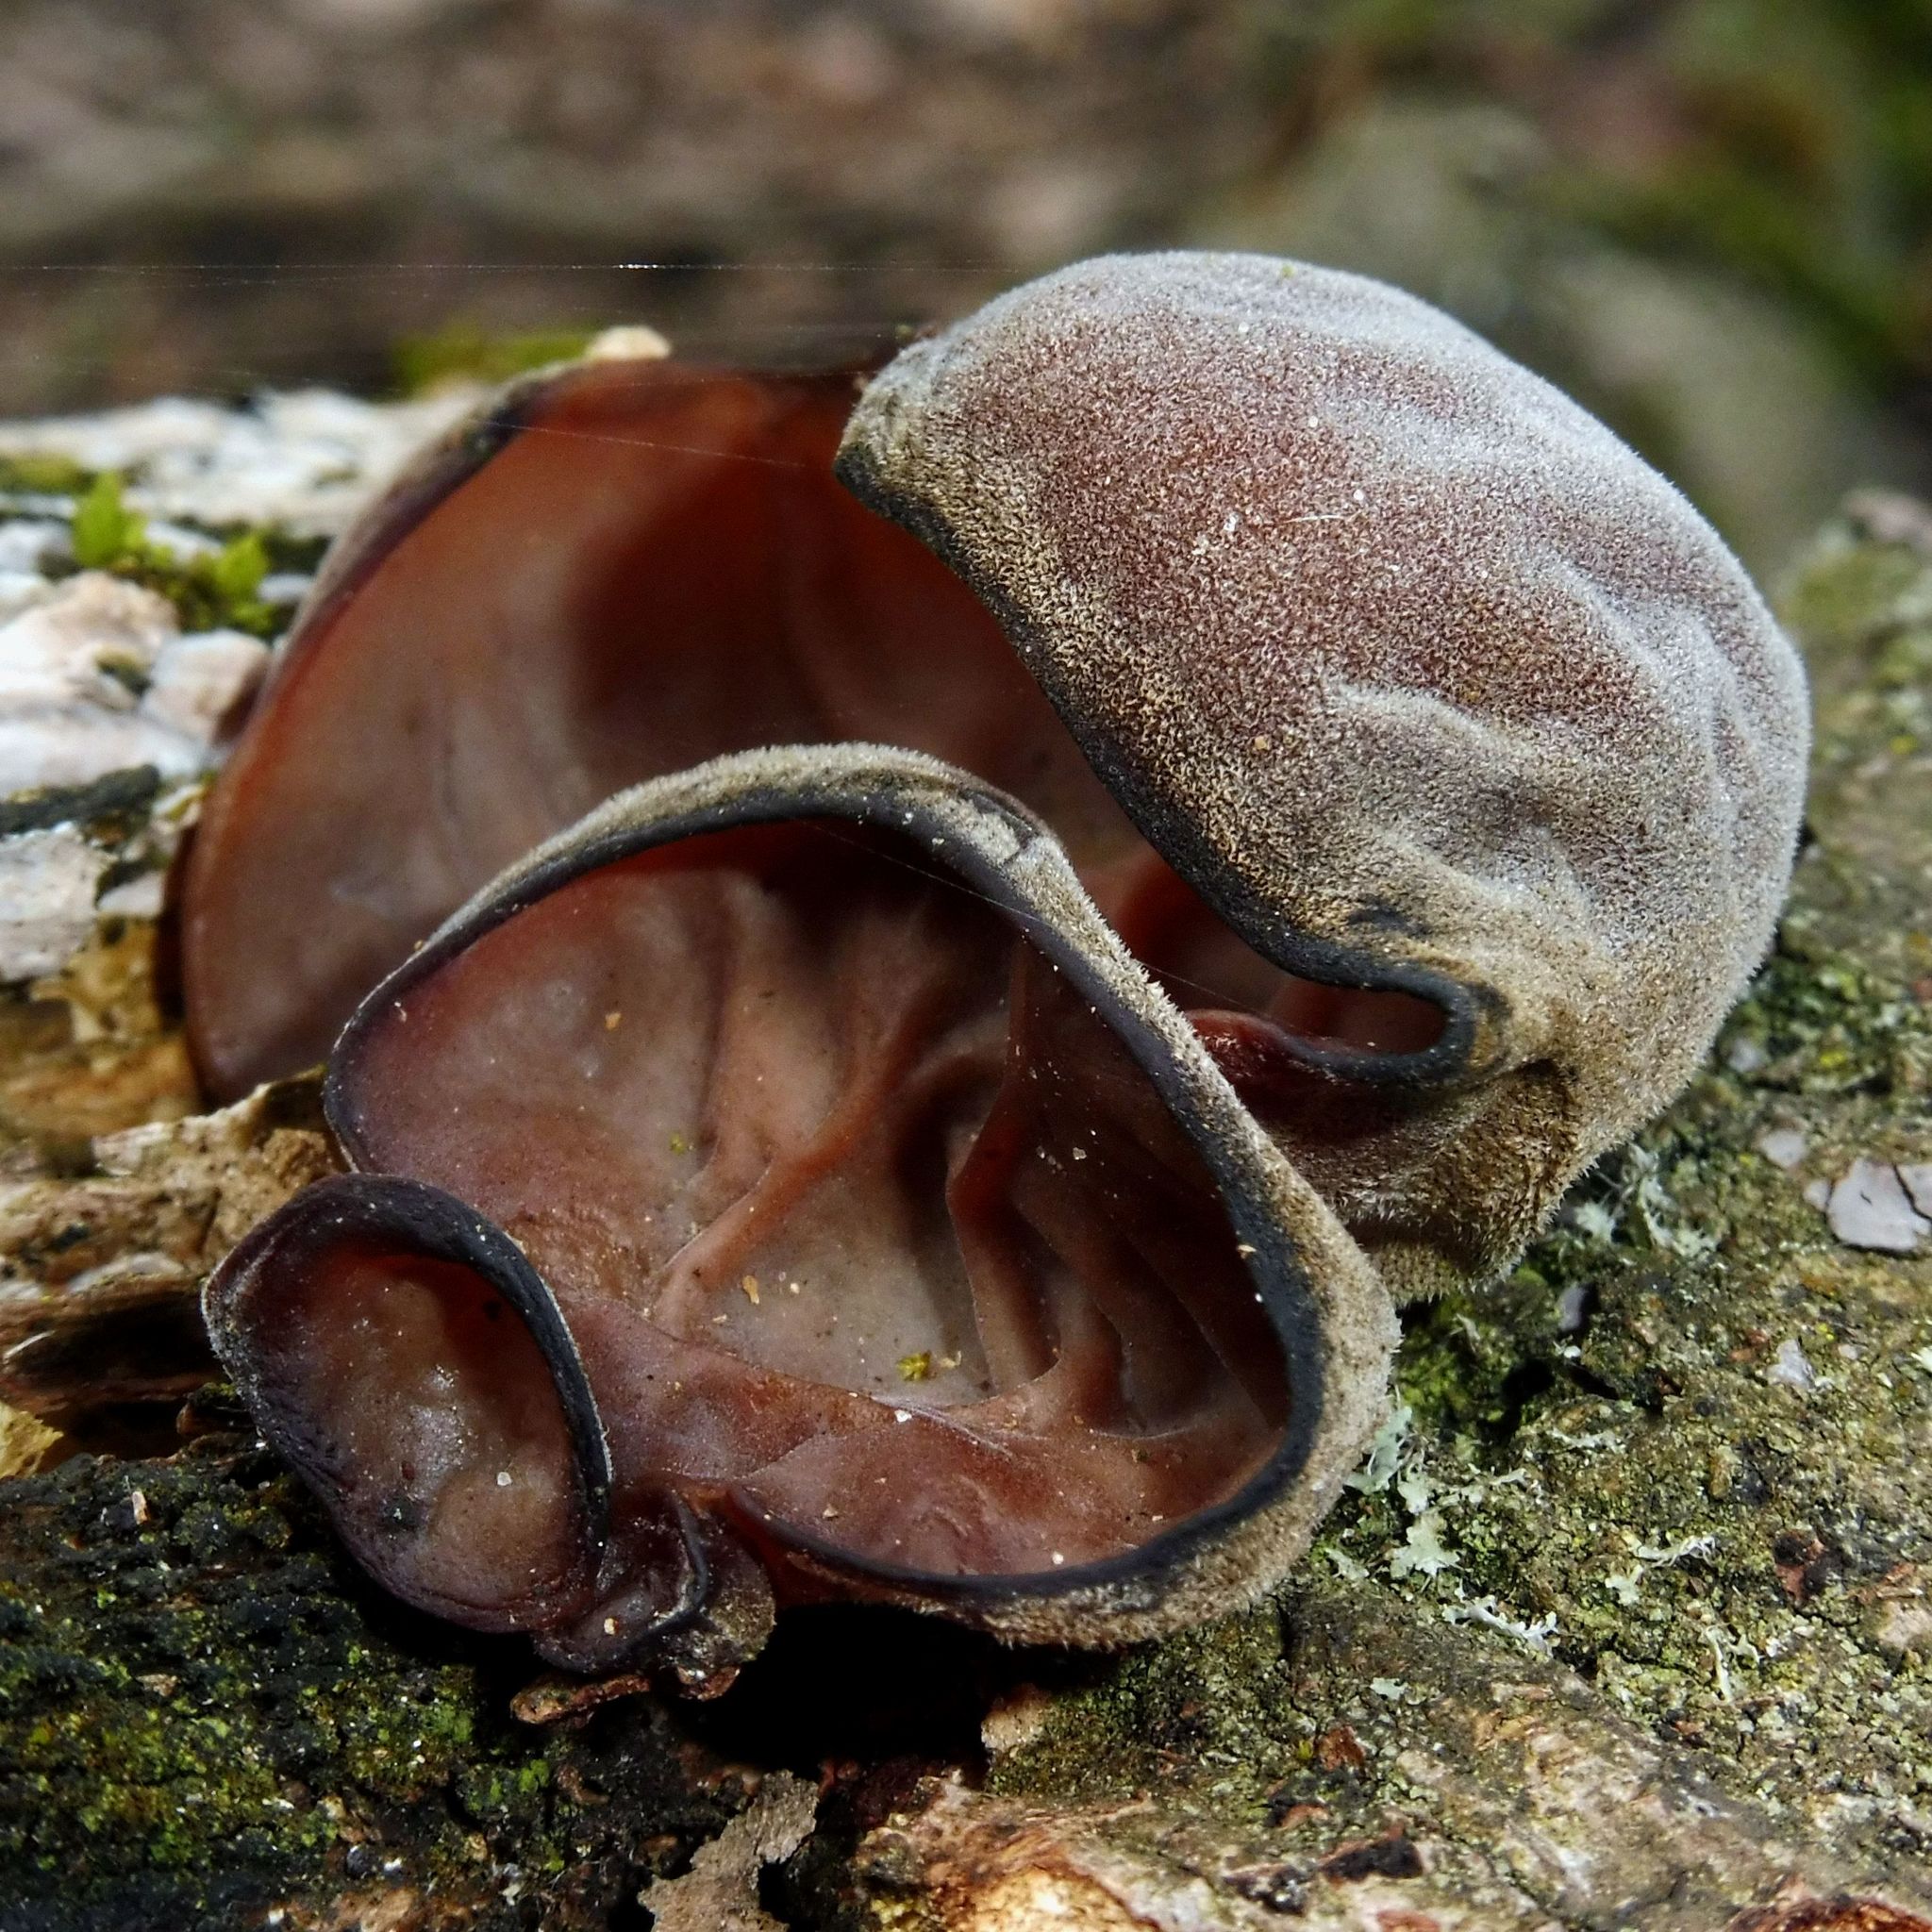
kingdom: Fungi
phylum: Basidiomycota
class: Agaricomycetes
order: Auriculariales
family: Auriculariaceae
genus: Auricularia
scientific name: Auricularia auricula-judae
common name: Jelly ear
